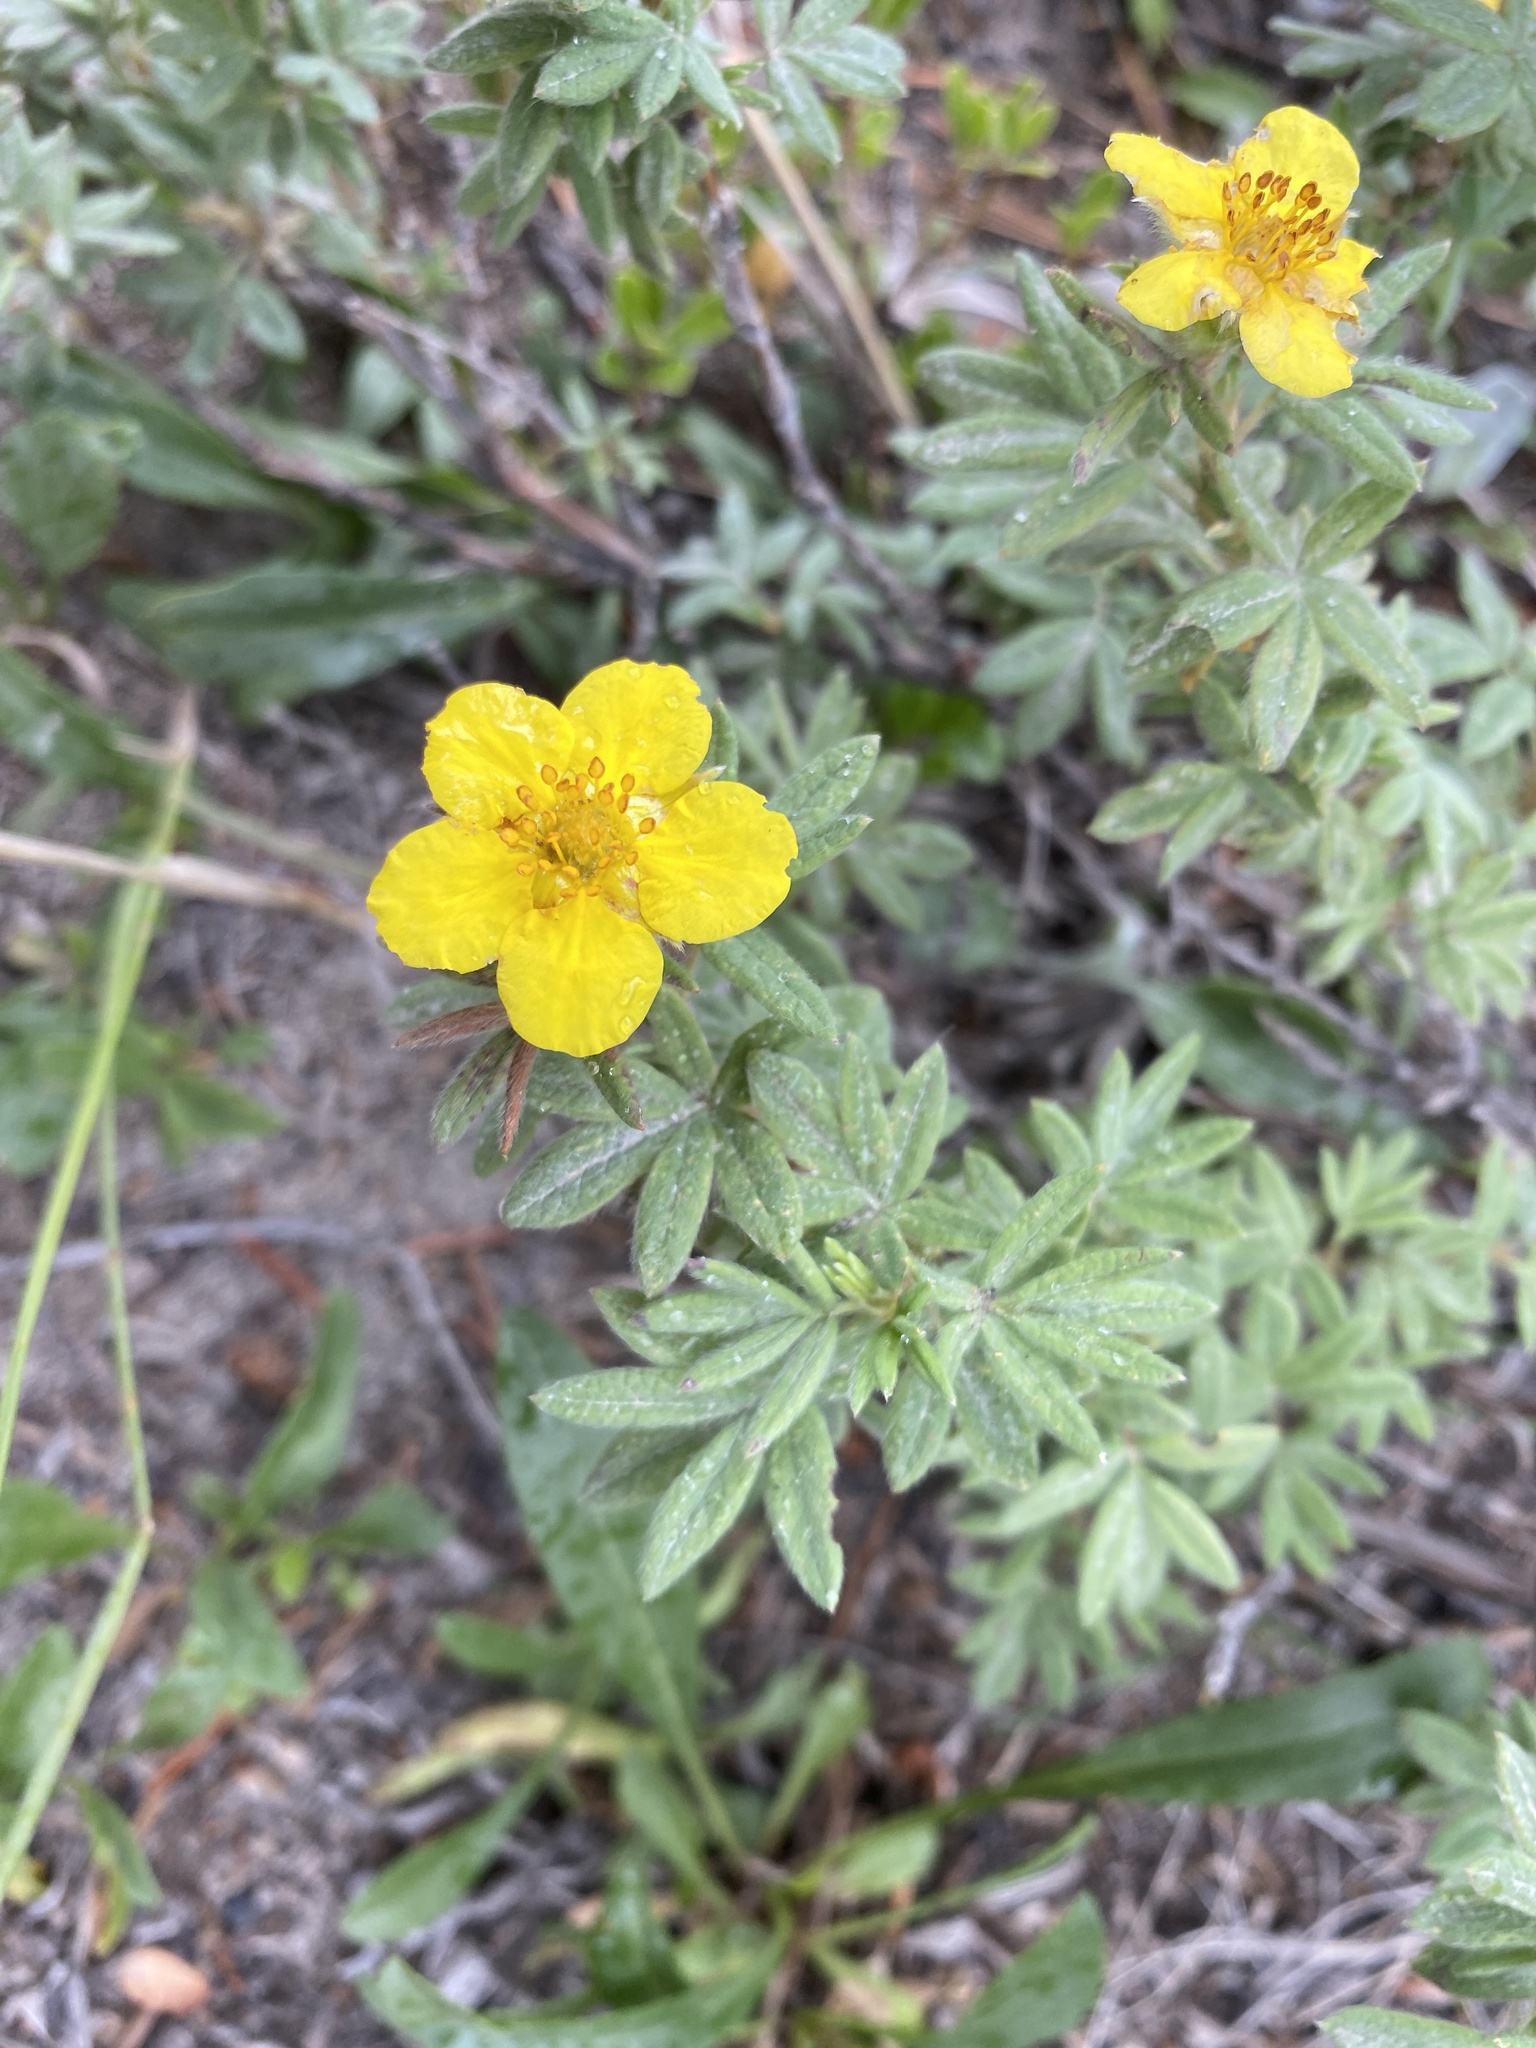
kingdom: Plantae
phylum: Tracheophyta
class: Magnoliopsida
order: Rosales
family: Rosaceae
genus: Dasiphora
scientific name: Dasiphora fruticosa
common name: Shrubby cinquefoil
